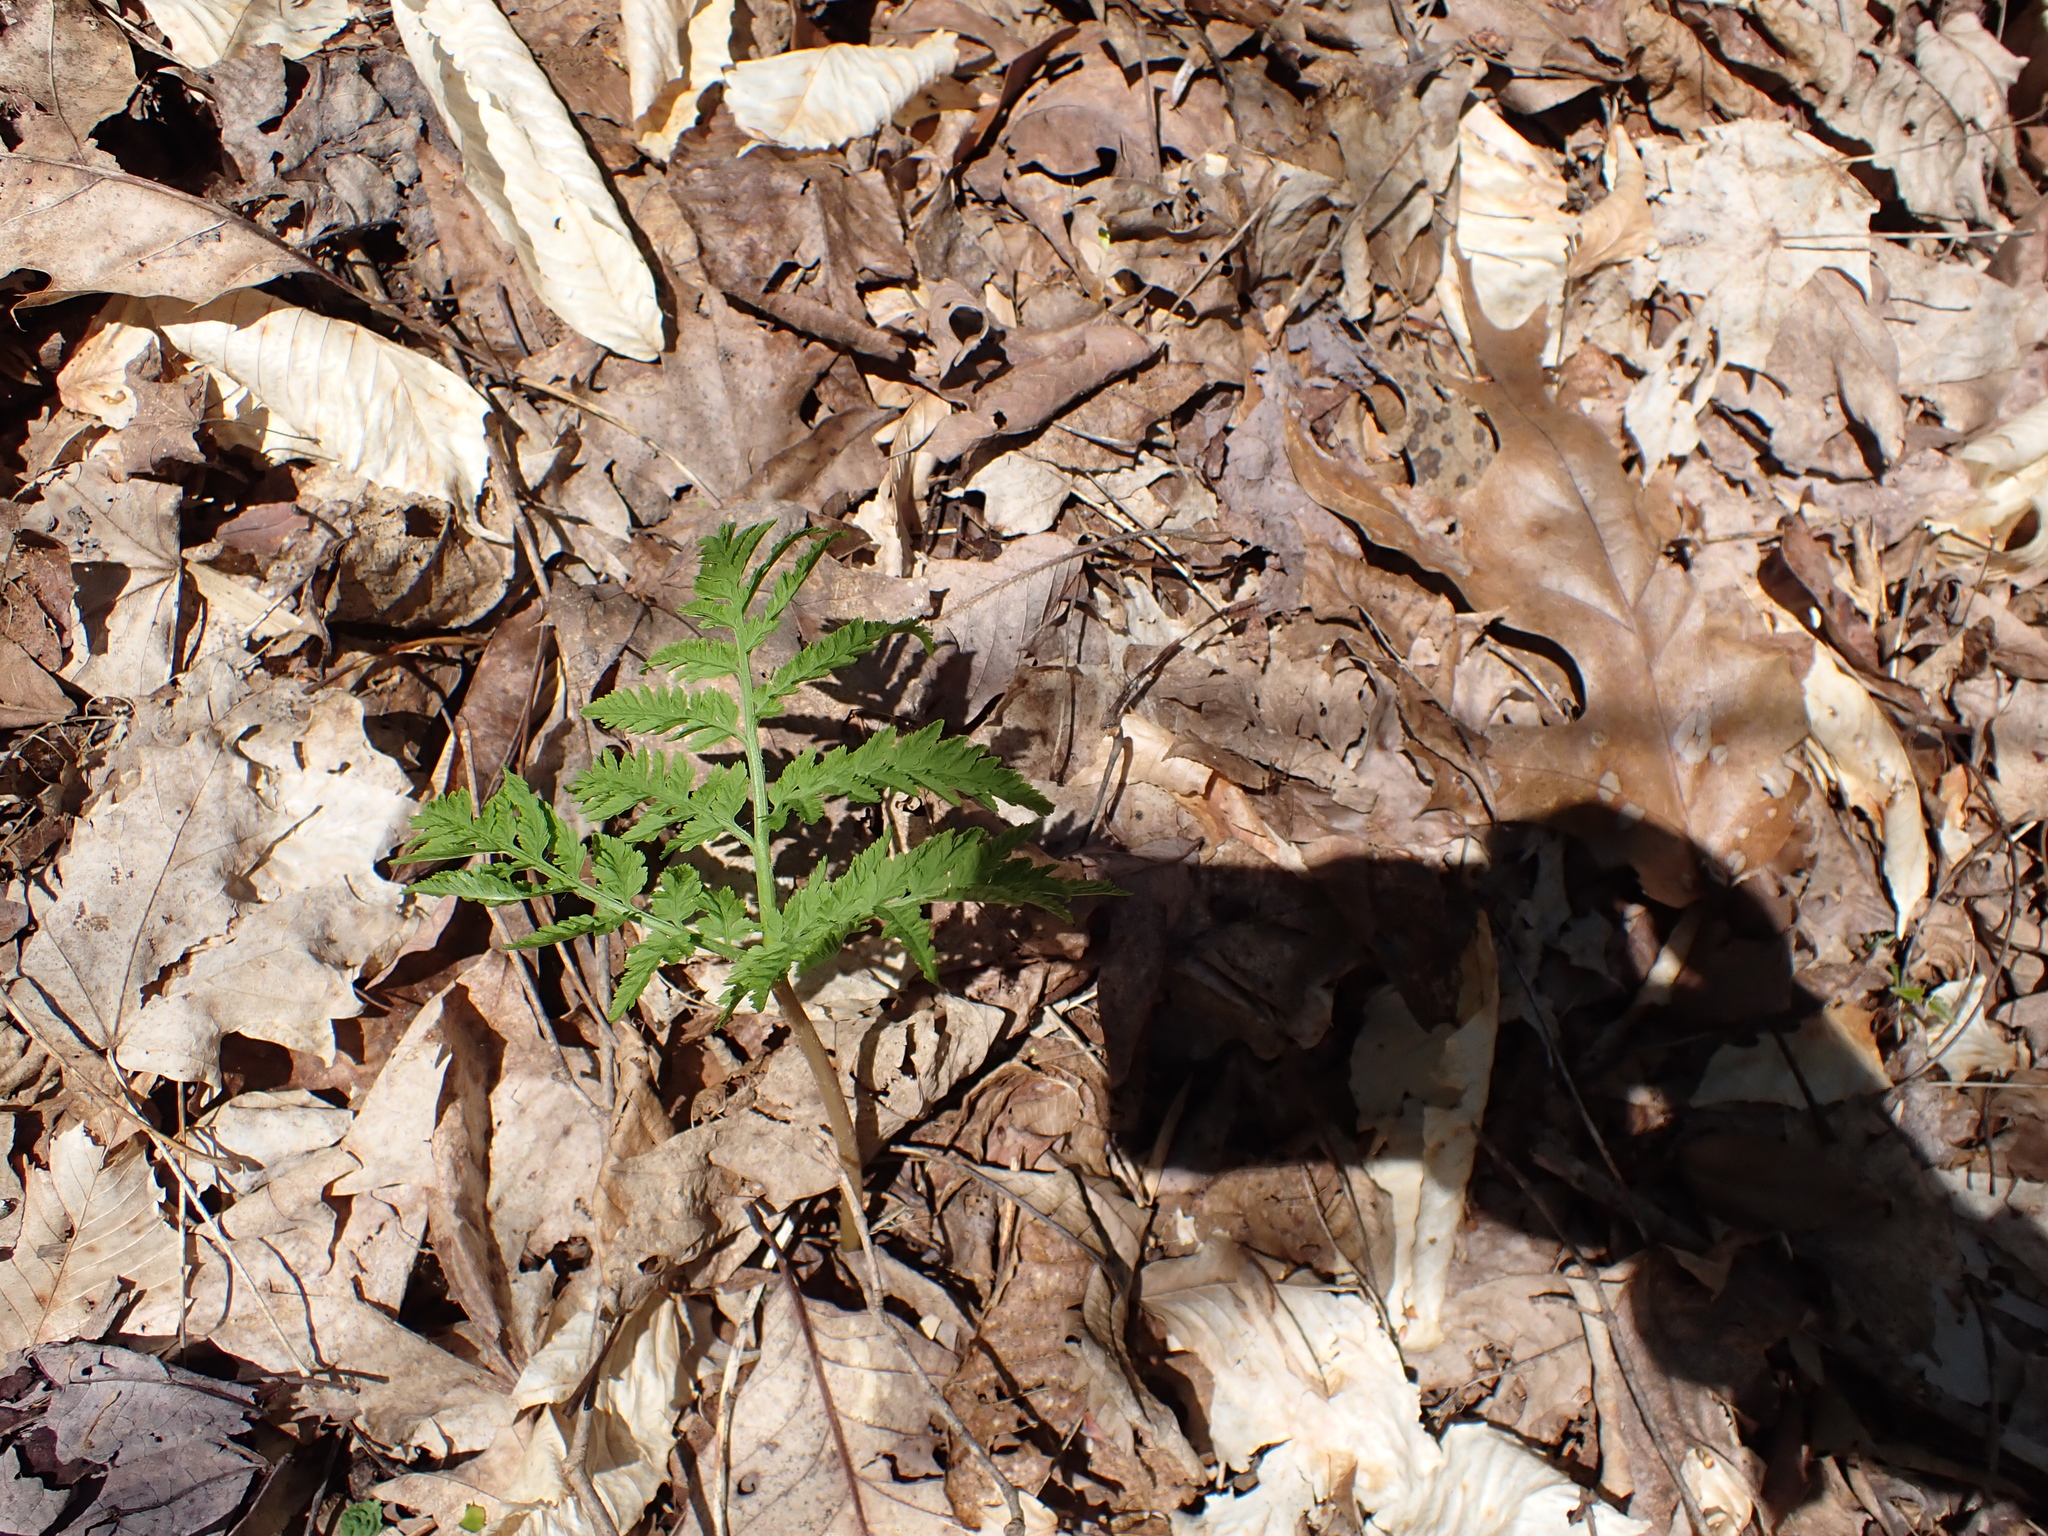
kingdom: Plantae
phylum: Tracheophyta
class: Polypodiopsida
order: Ophioglossales
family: Ophioglossaceae
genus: Botrypus
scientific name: Botrypus virginianus
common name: Common grapefern
